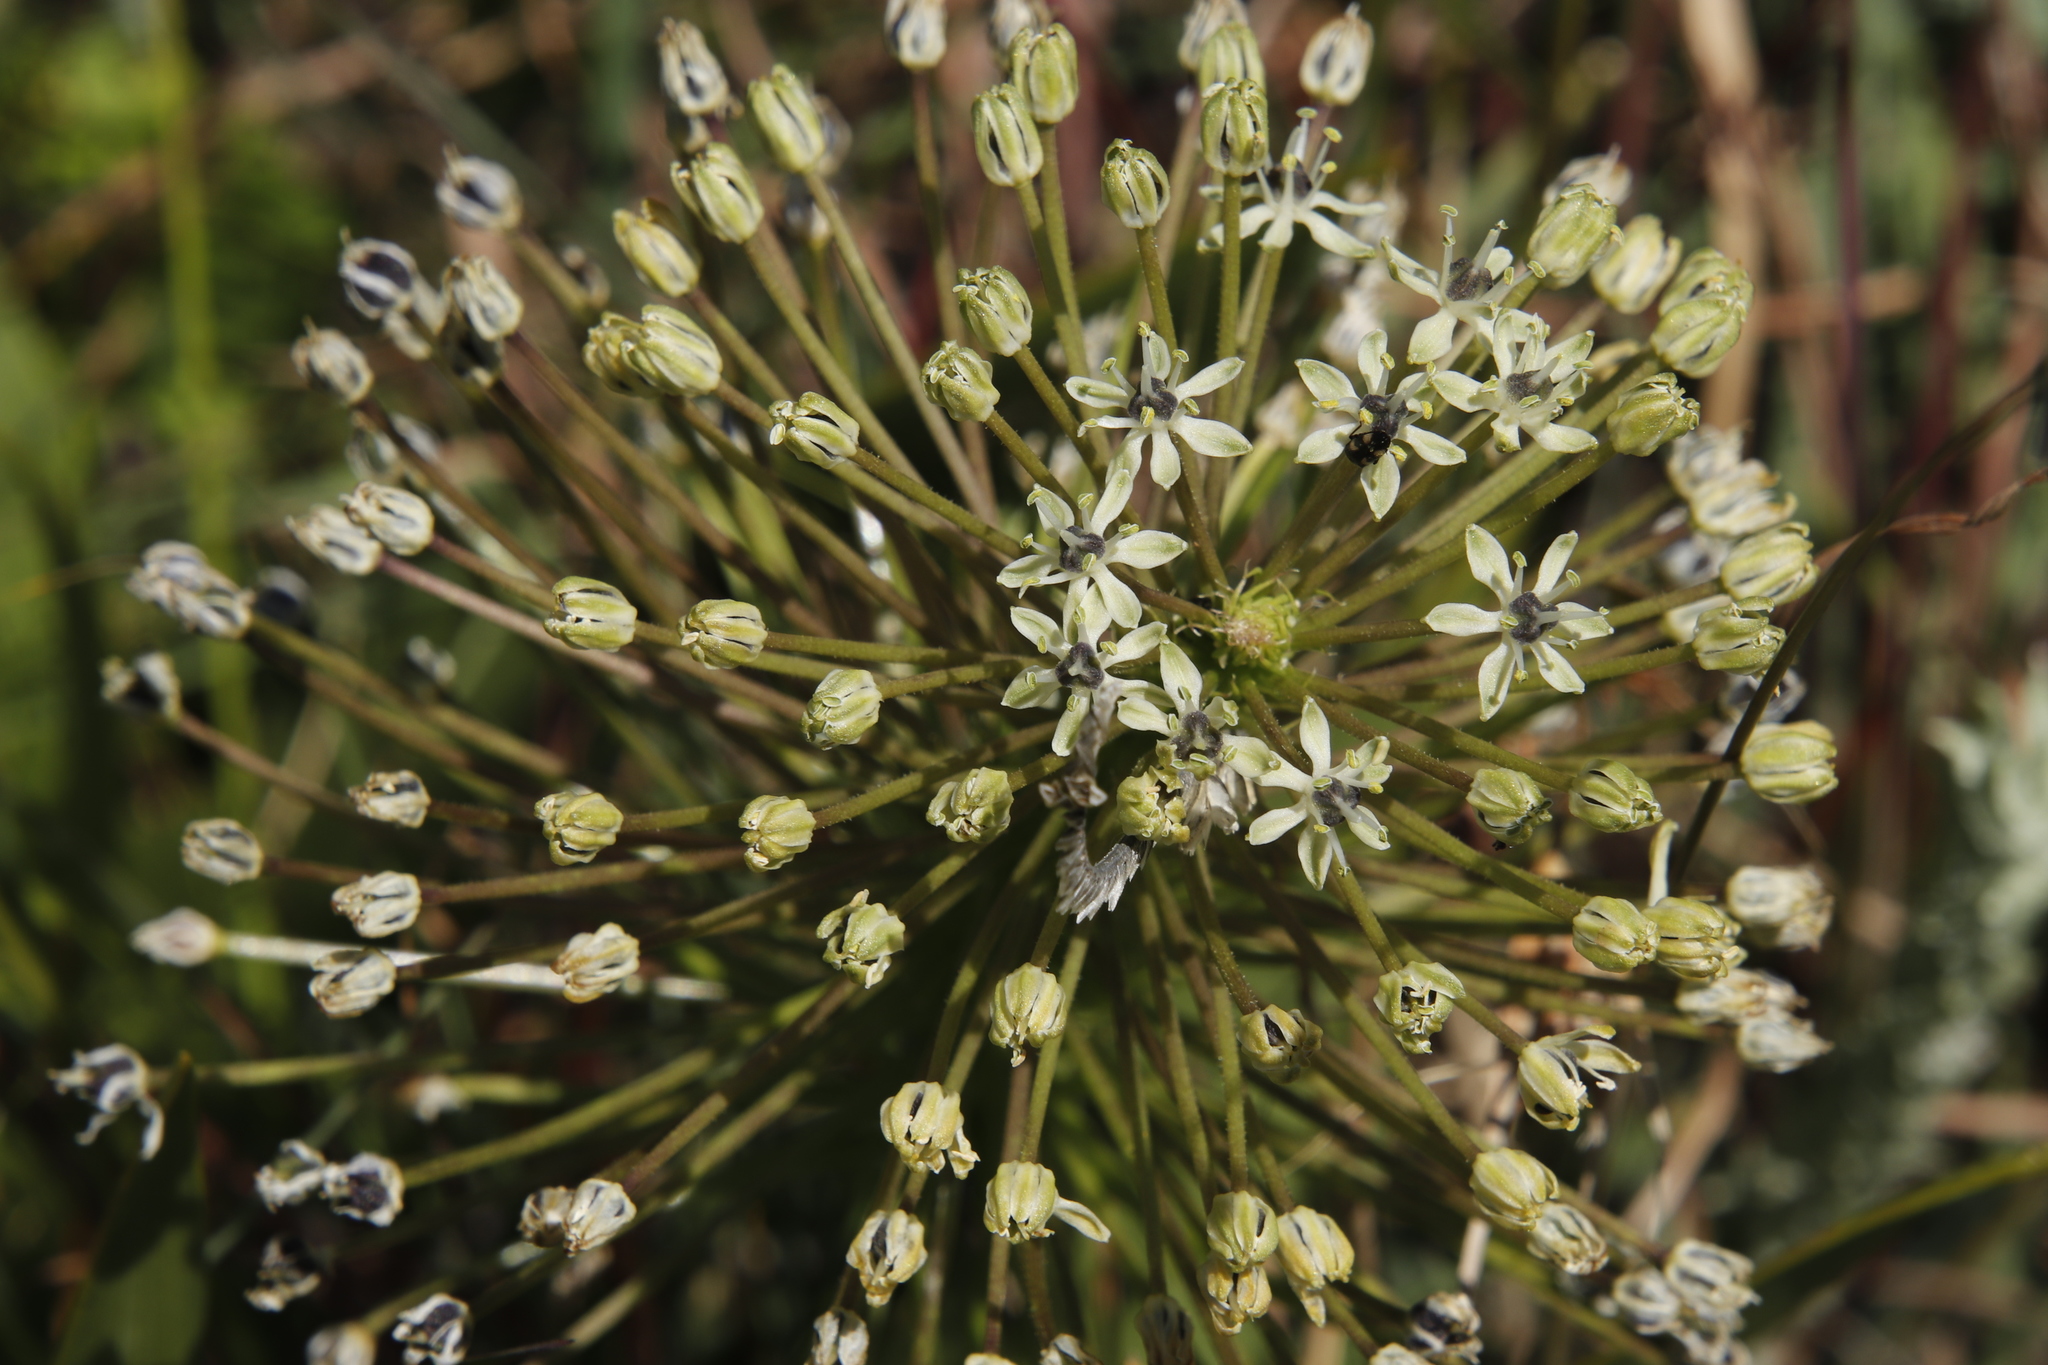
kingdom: Plantae
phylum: Tracheophyta
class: Liliopsida
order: Asparagales
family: Asparagaceae
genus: Schizocarphus
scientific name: Schizocarphus nervosus
